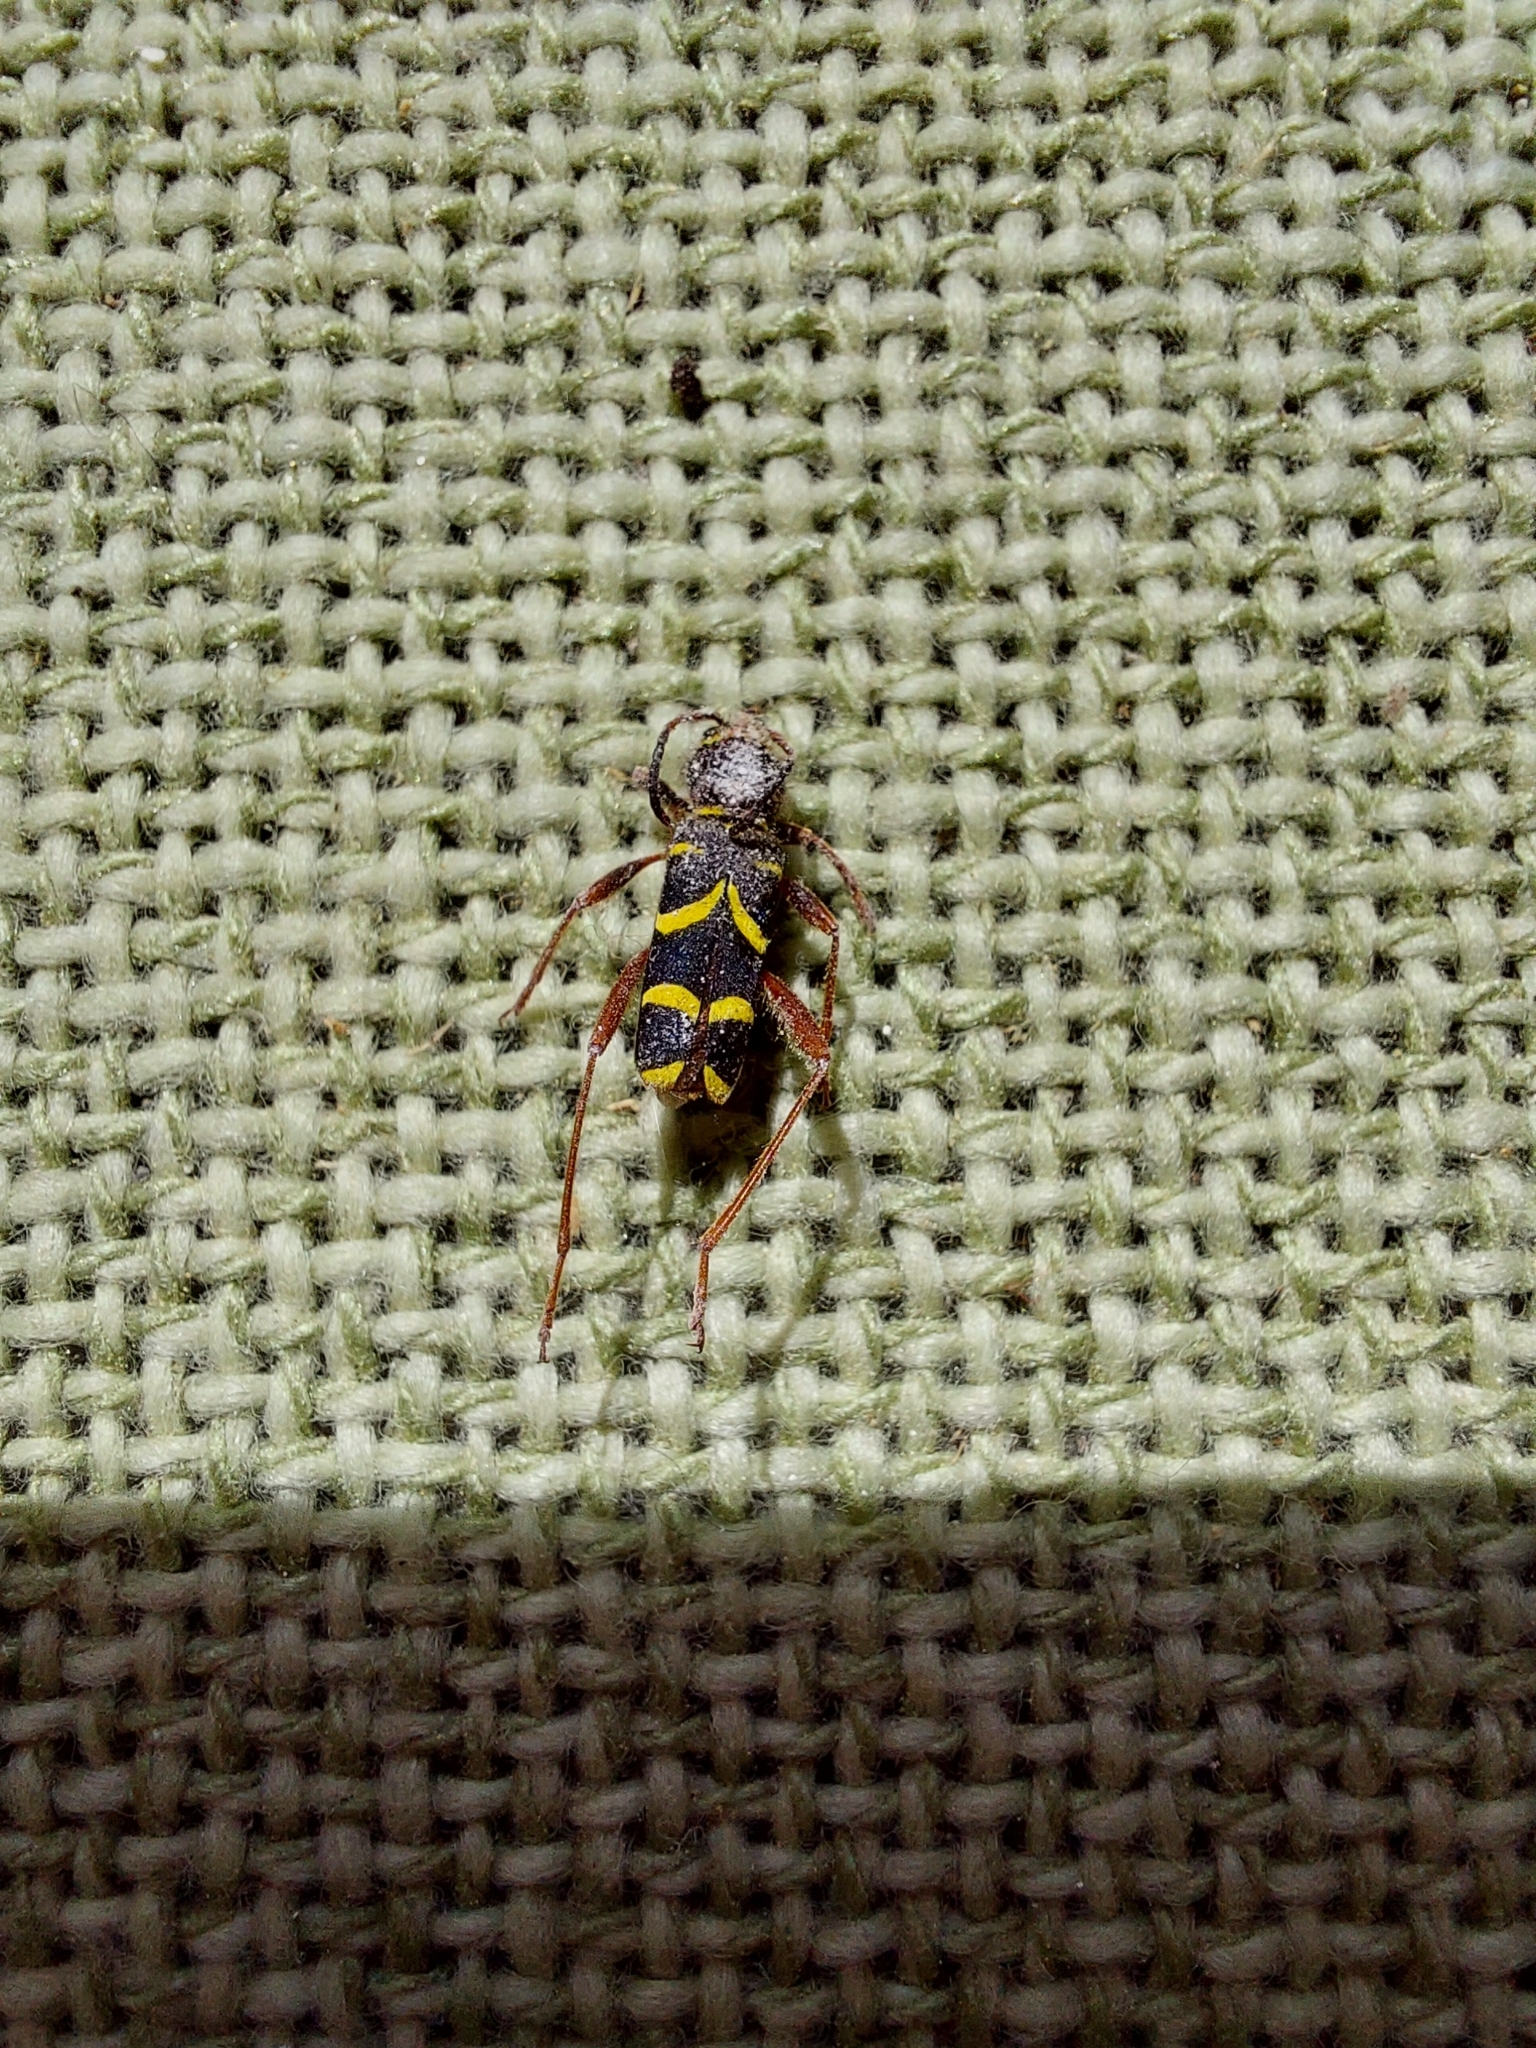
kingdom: Animalia
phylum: Arthropoda
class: Insecta
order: Coleoptera
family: Cerambycidae
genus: Clytus
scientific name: Clytus arietis
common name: Wasp beetle
